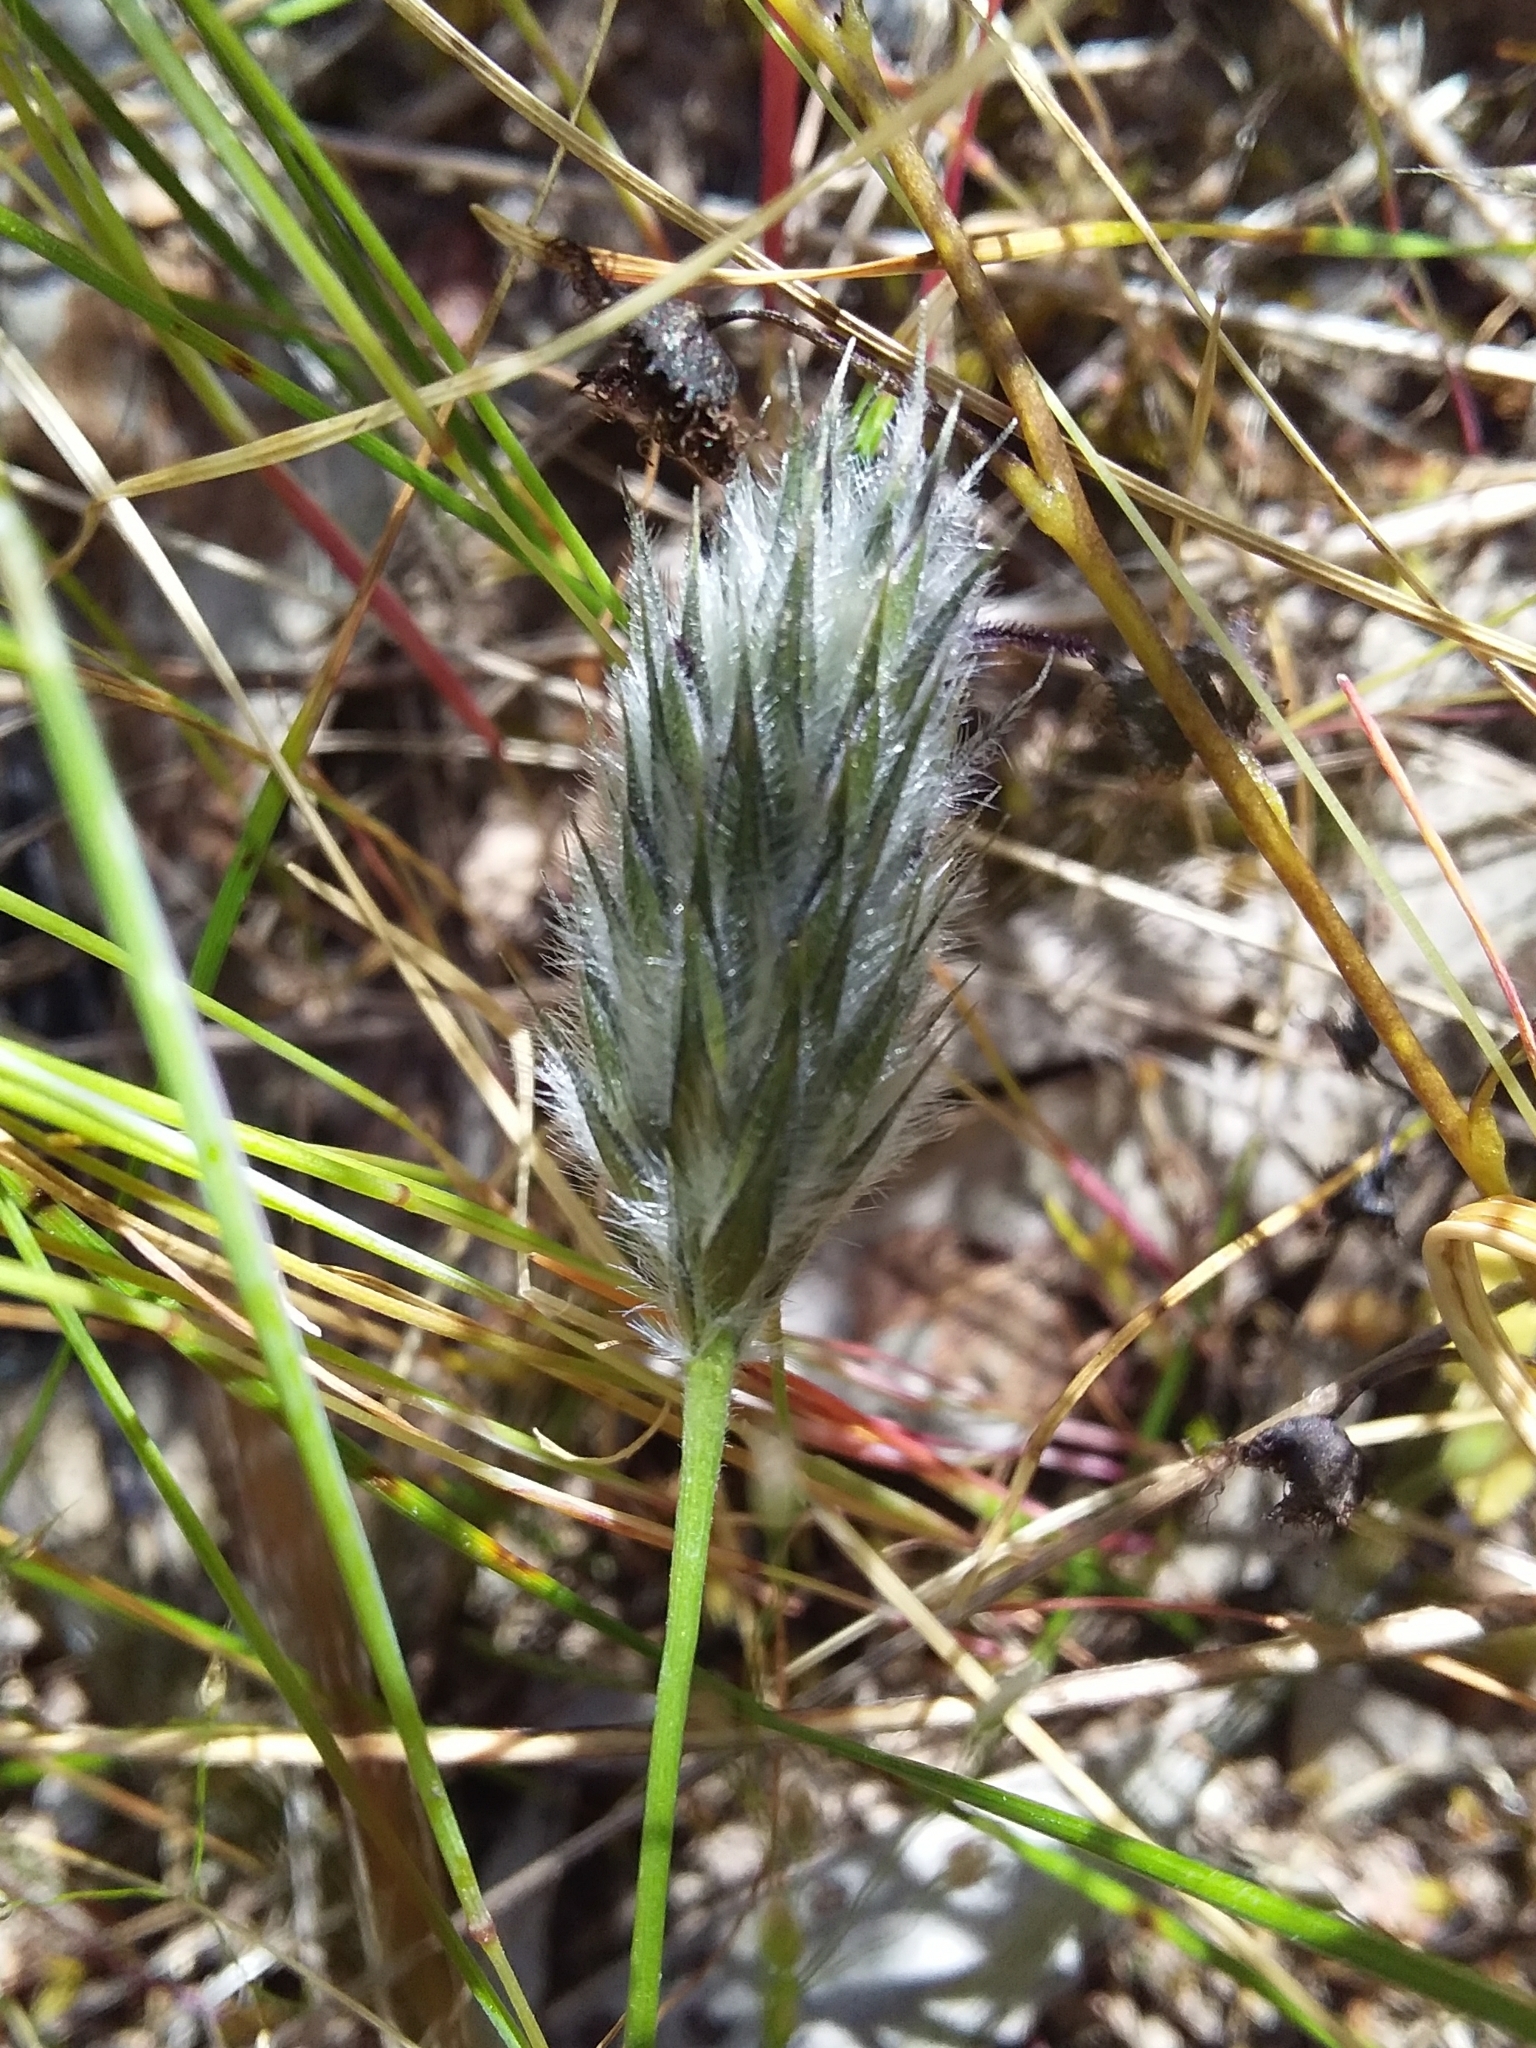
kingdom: Plantae
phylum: Tracheophyta
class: Liliopsida
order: Poales
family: Poaceae
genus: Neurachne
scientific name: Neurachne alopecuroidea
